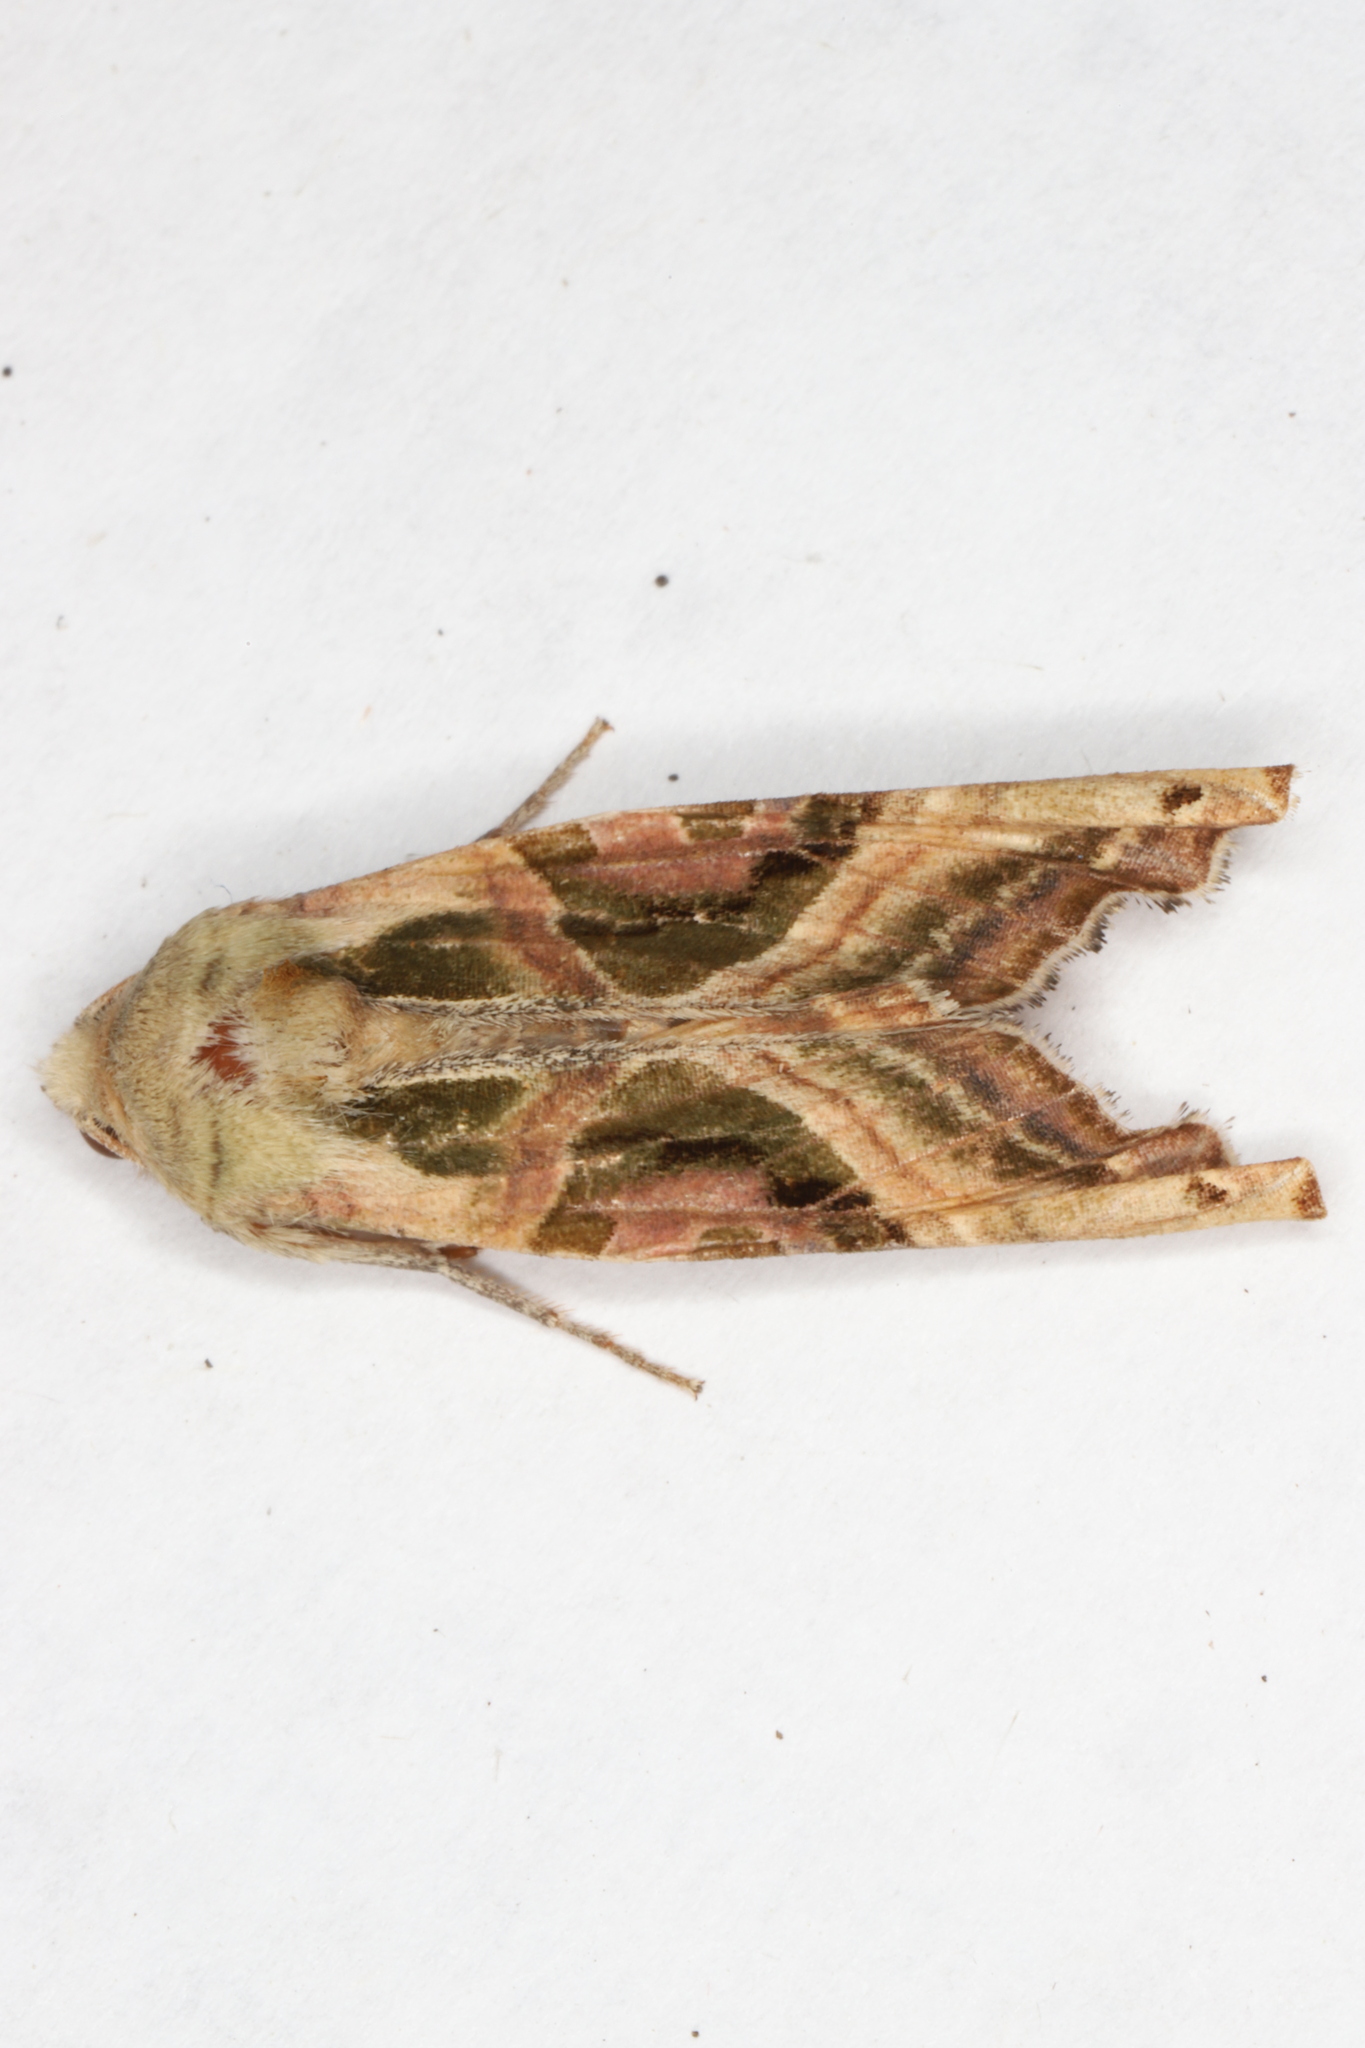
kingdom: Animalia
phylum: Arthropoda
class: Insecta
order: Lepidoptera
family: Noctuidae
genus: Phlogophora
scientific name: Phlogophora iris
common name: Olive angle shades
